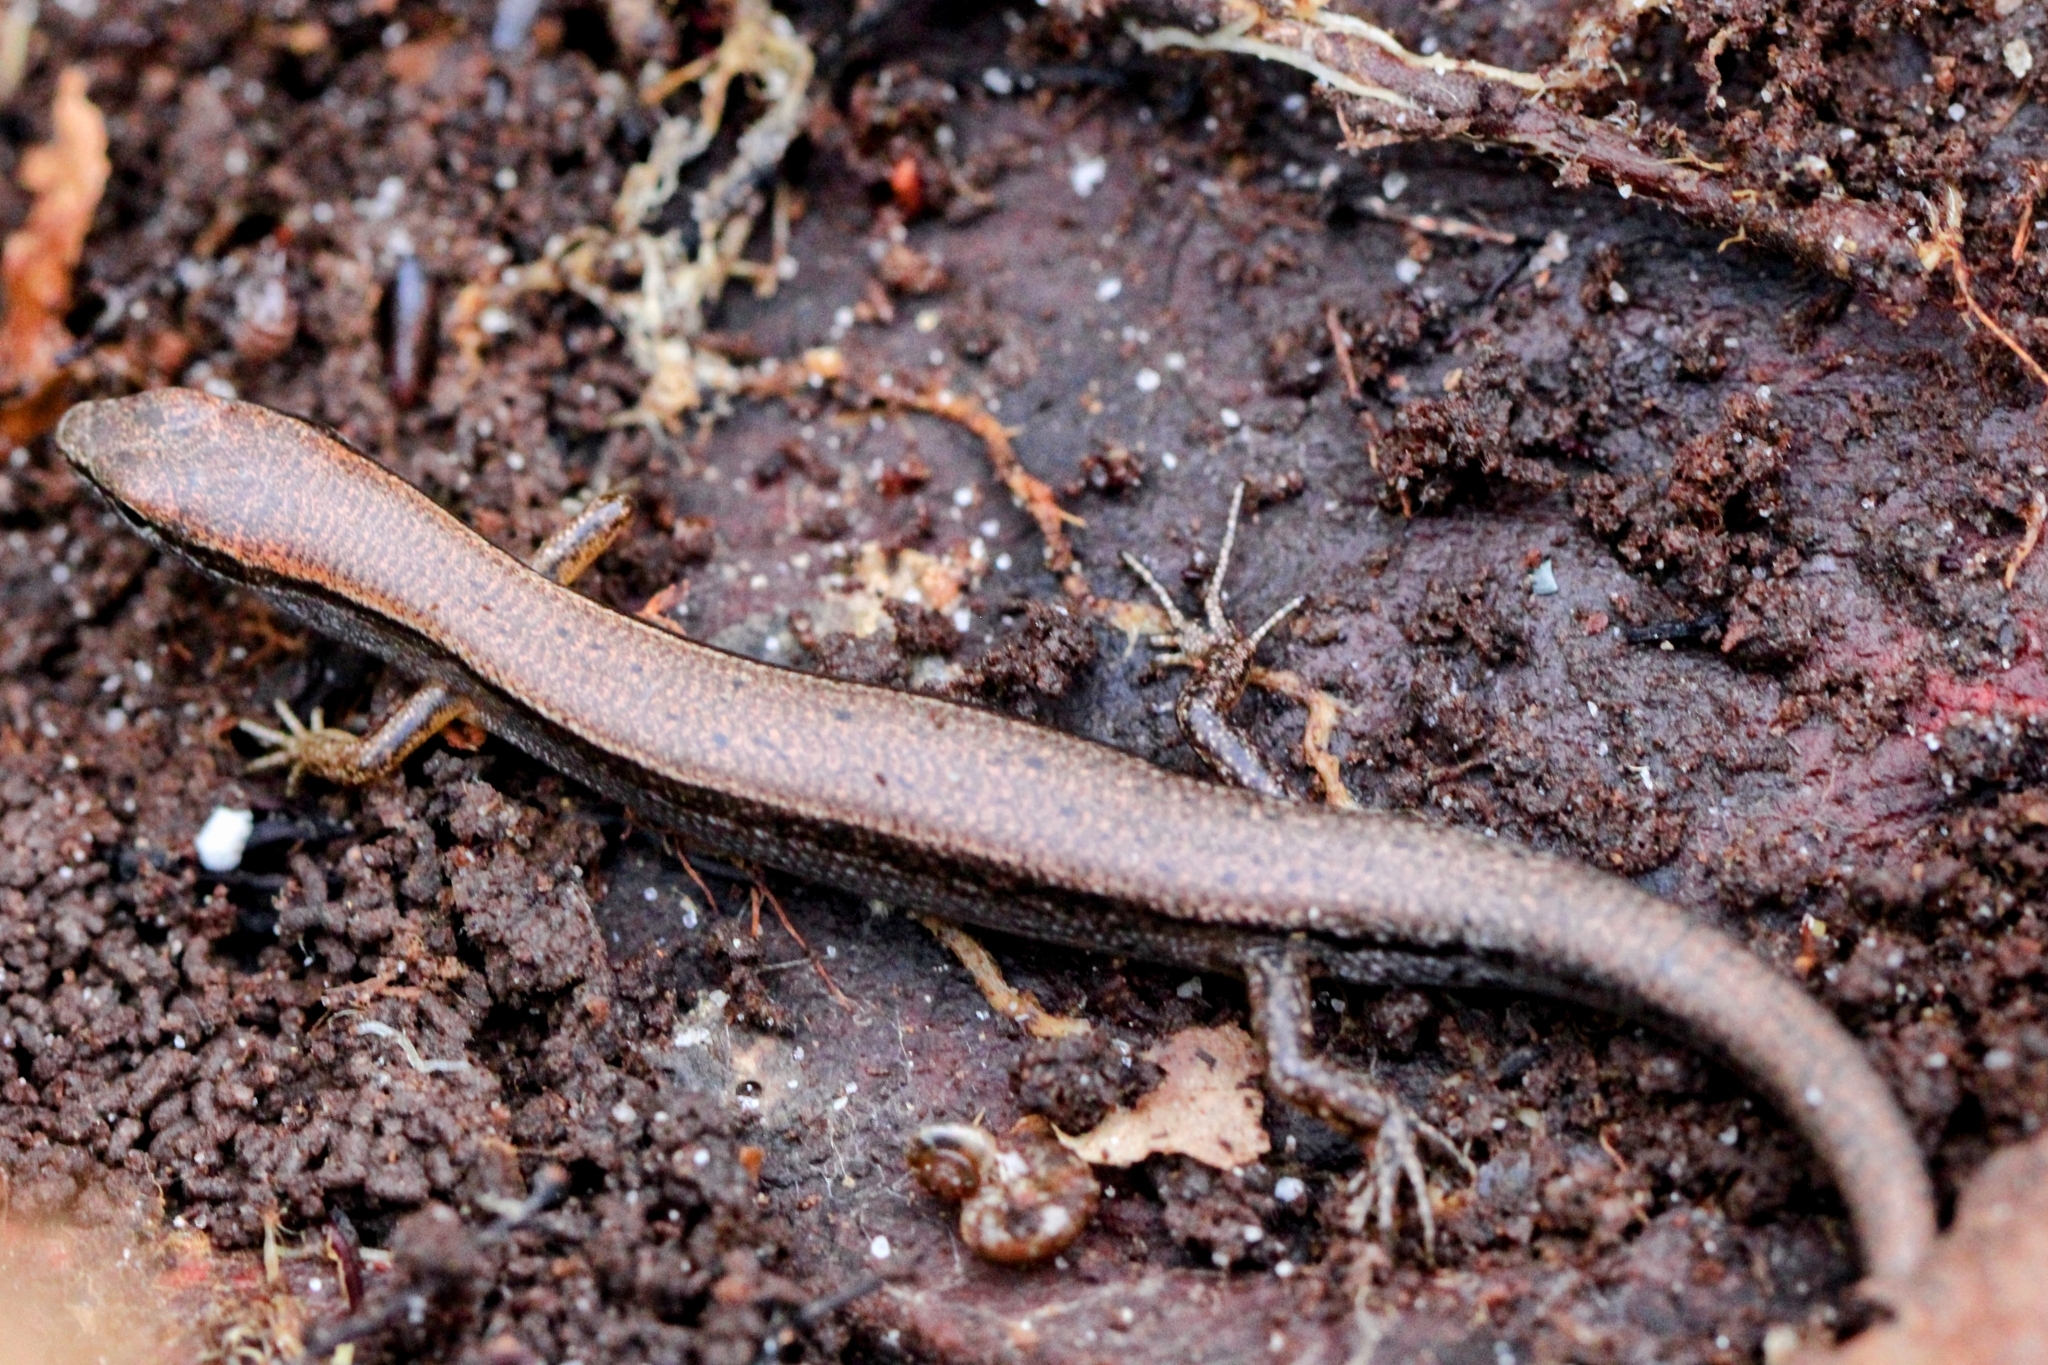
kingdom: Animalia
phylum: Chordata
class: Squamata
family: Scincidae
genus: Scincella
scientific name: Scincella lateralis
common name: Ground skink
